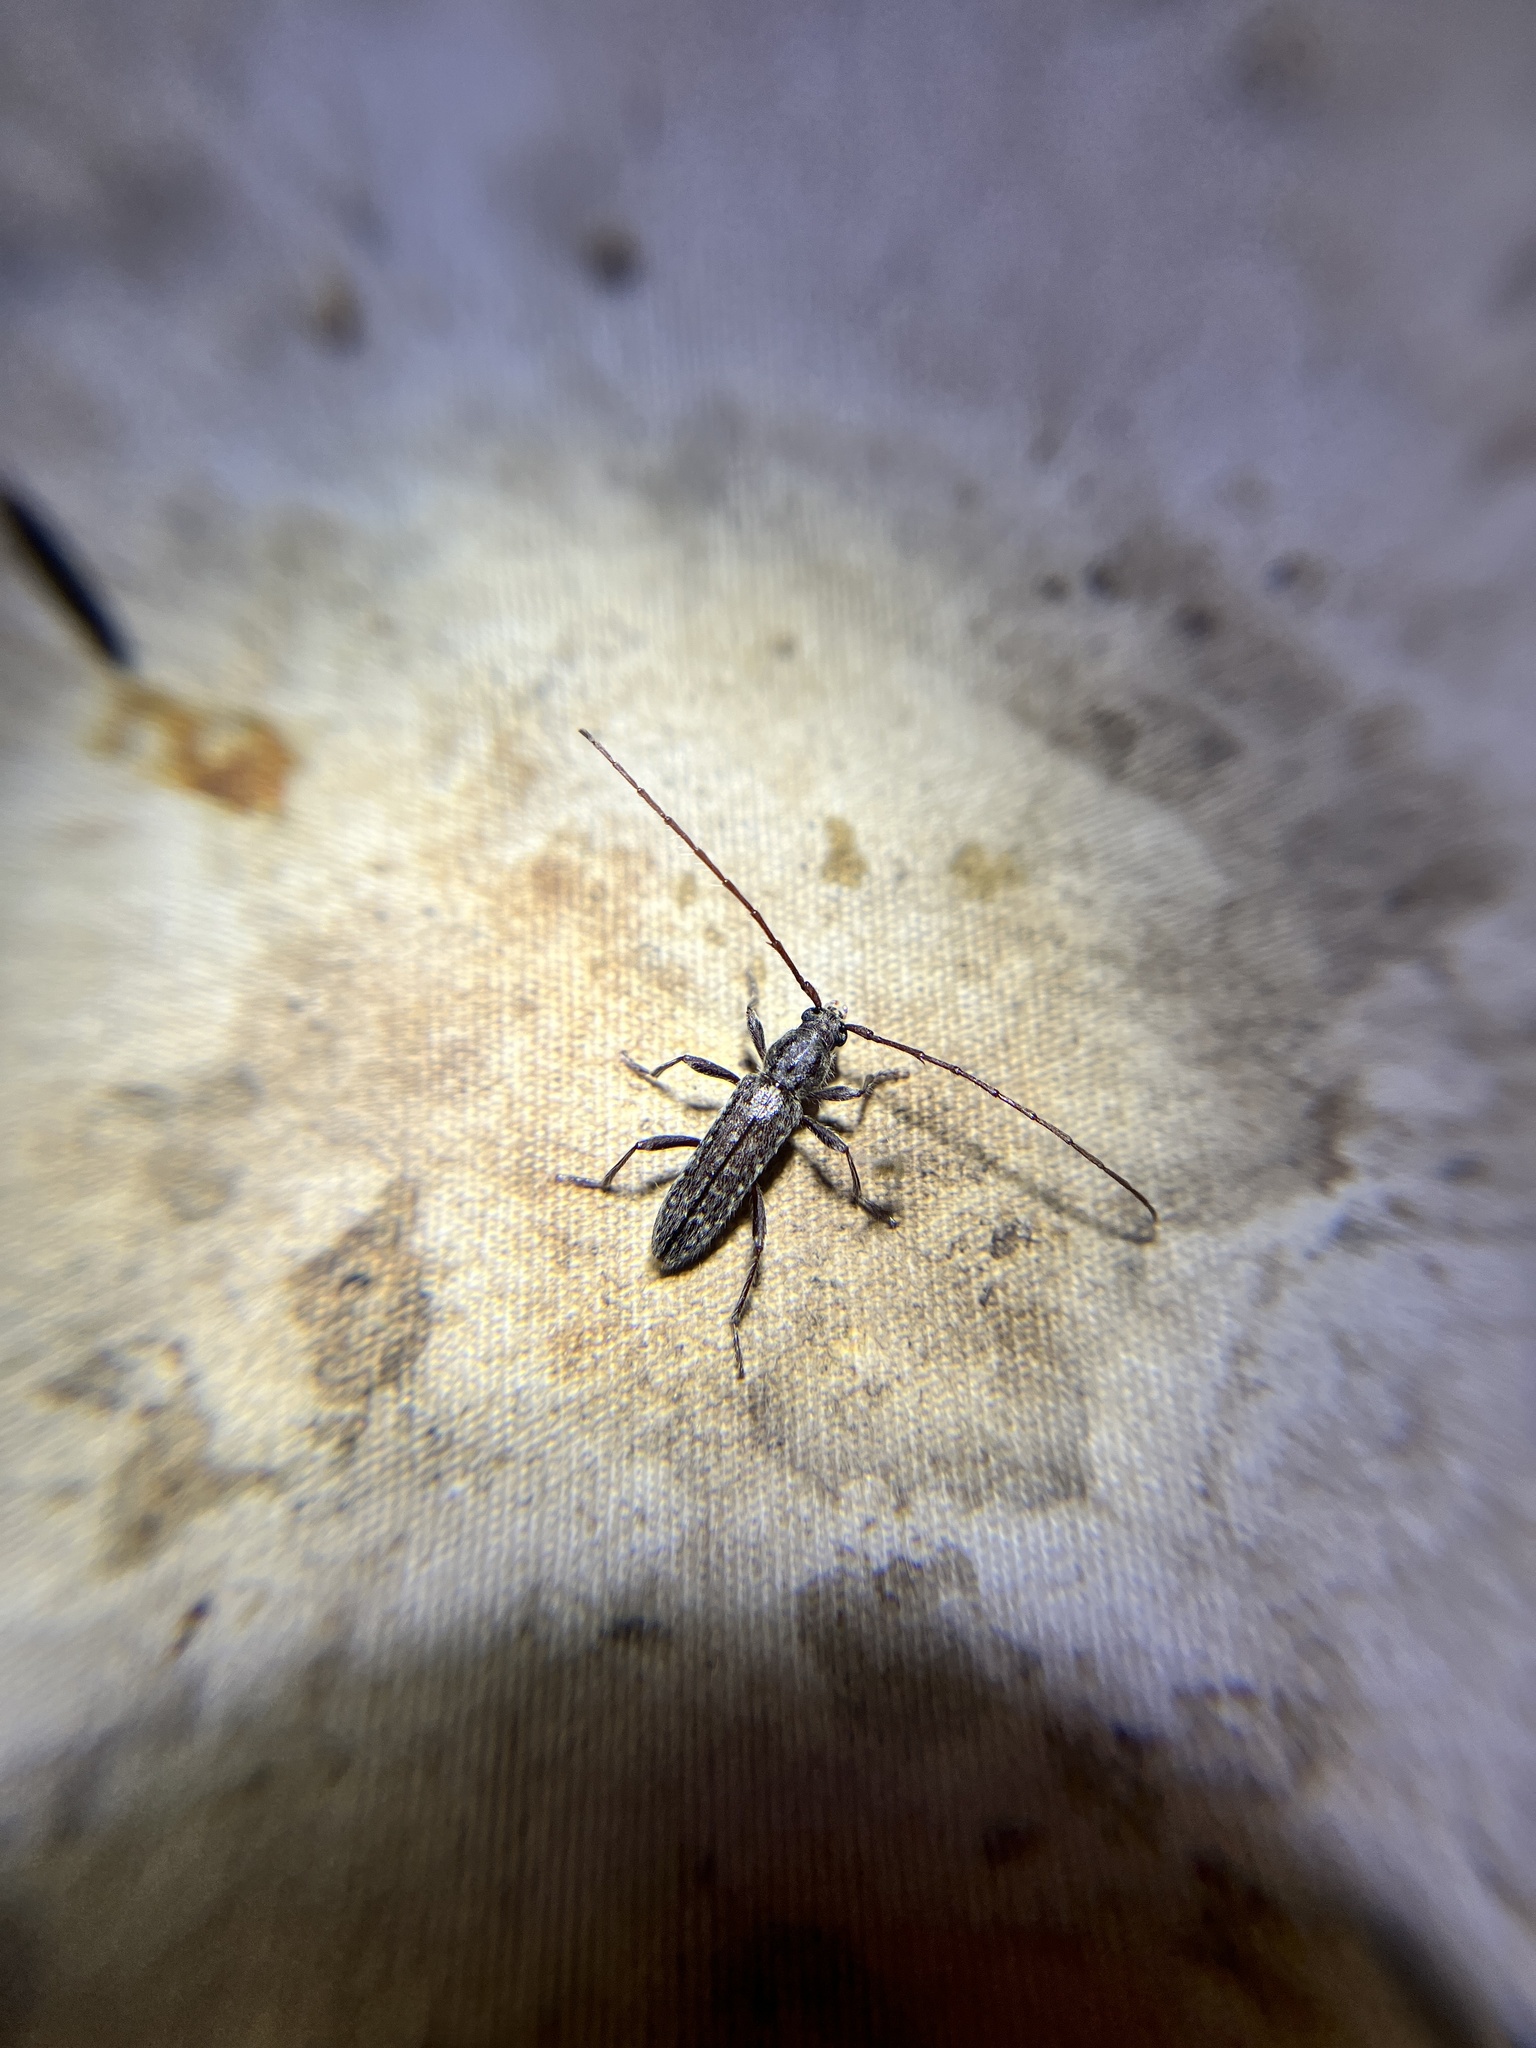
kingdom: Animalia
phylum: Arthropoda
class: Insecta
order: Coleoptera
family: Cerambycidae
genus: Anelaphus
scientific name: Anelaphus pumilus
